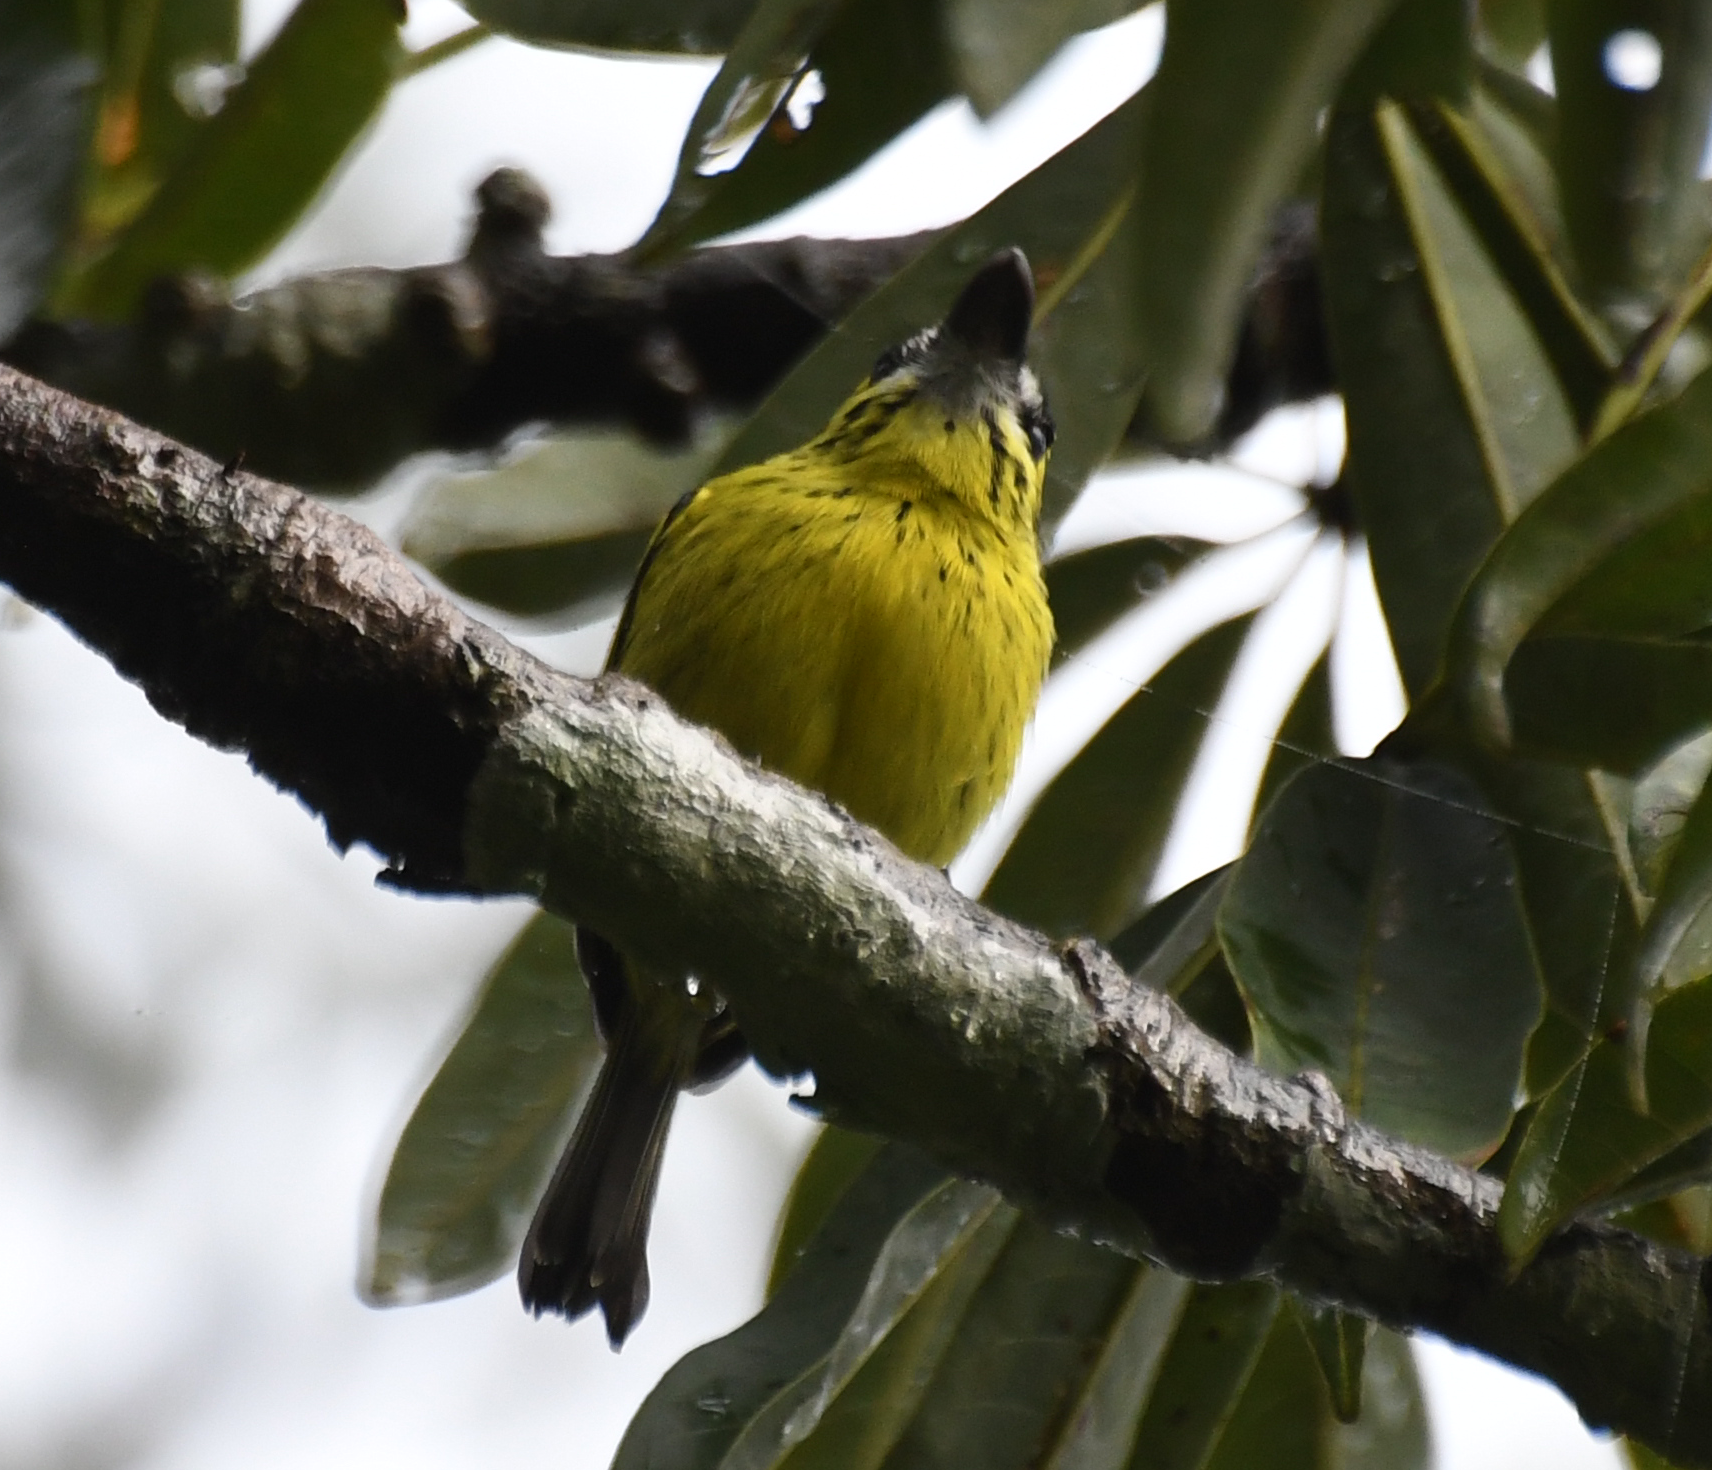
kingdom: Animalia
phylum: Chordata
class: Aves
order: Passeriformes
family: Tyrannidae
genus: Todirostrum
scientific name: Todirostrum chrysocrotaphum
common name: Yellow-browed tody-flycatcher
